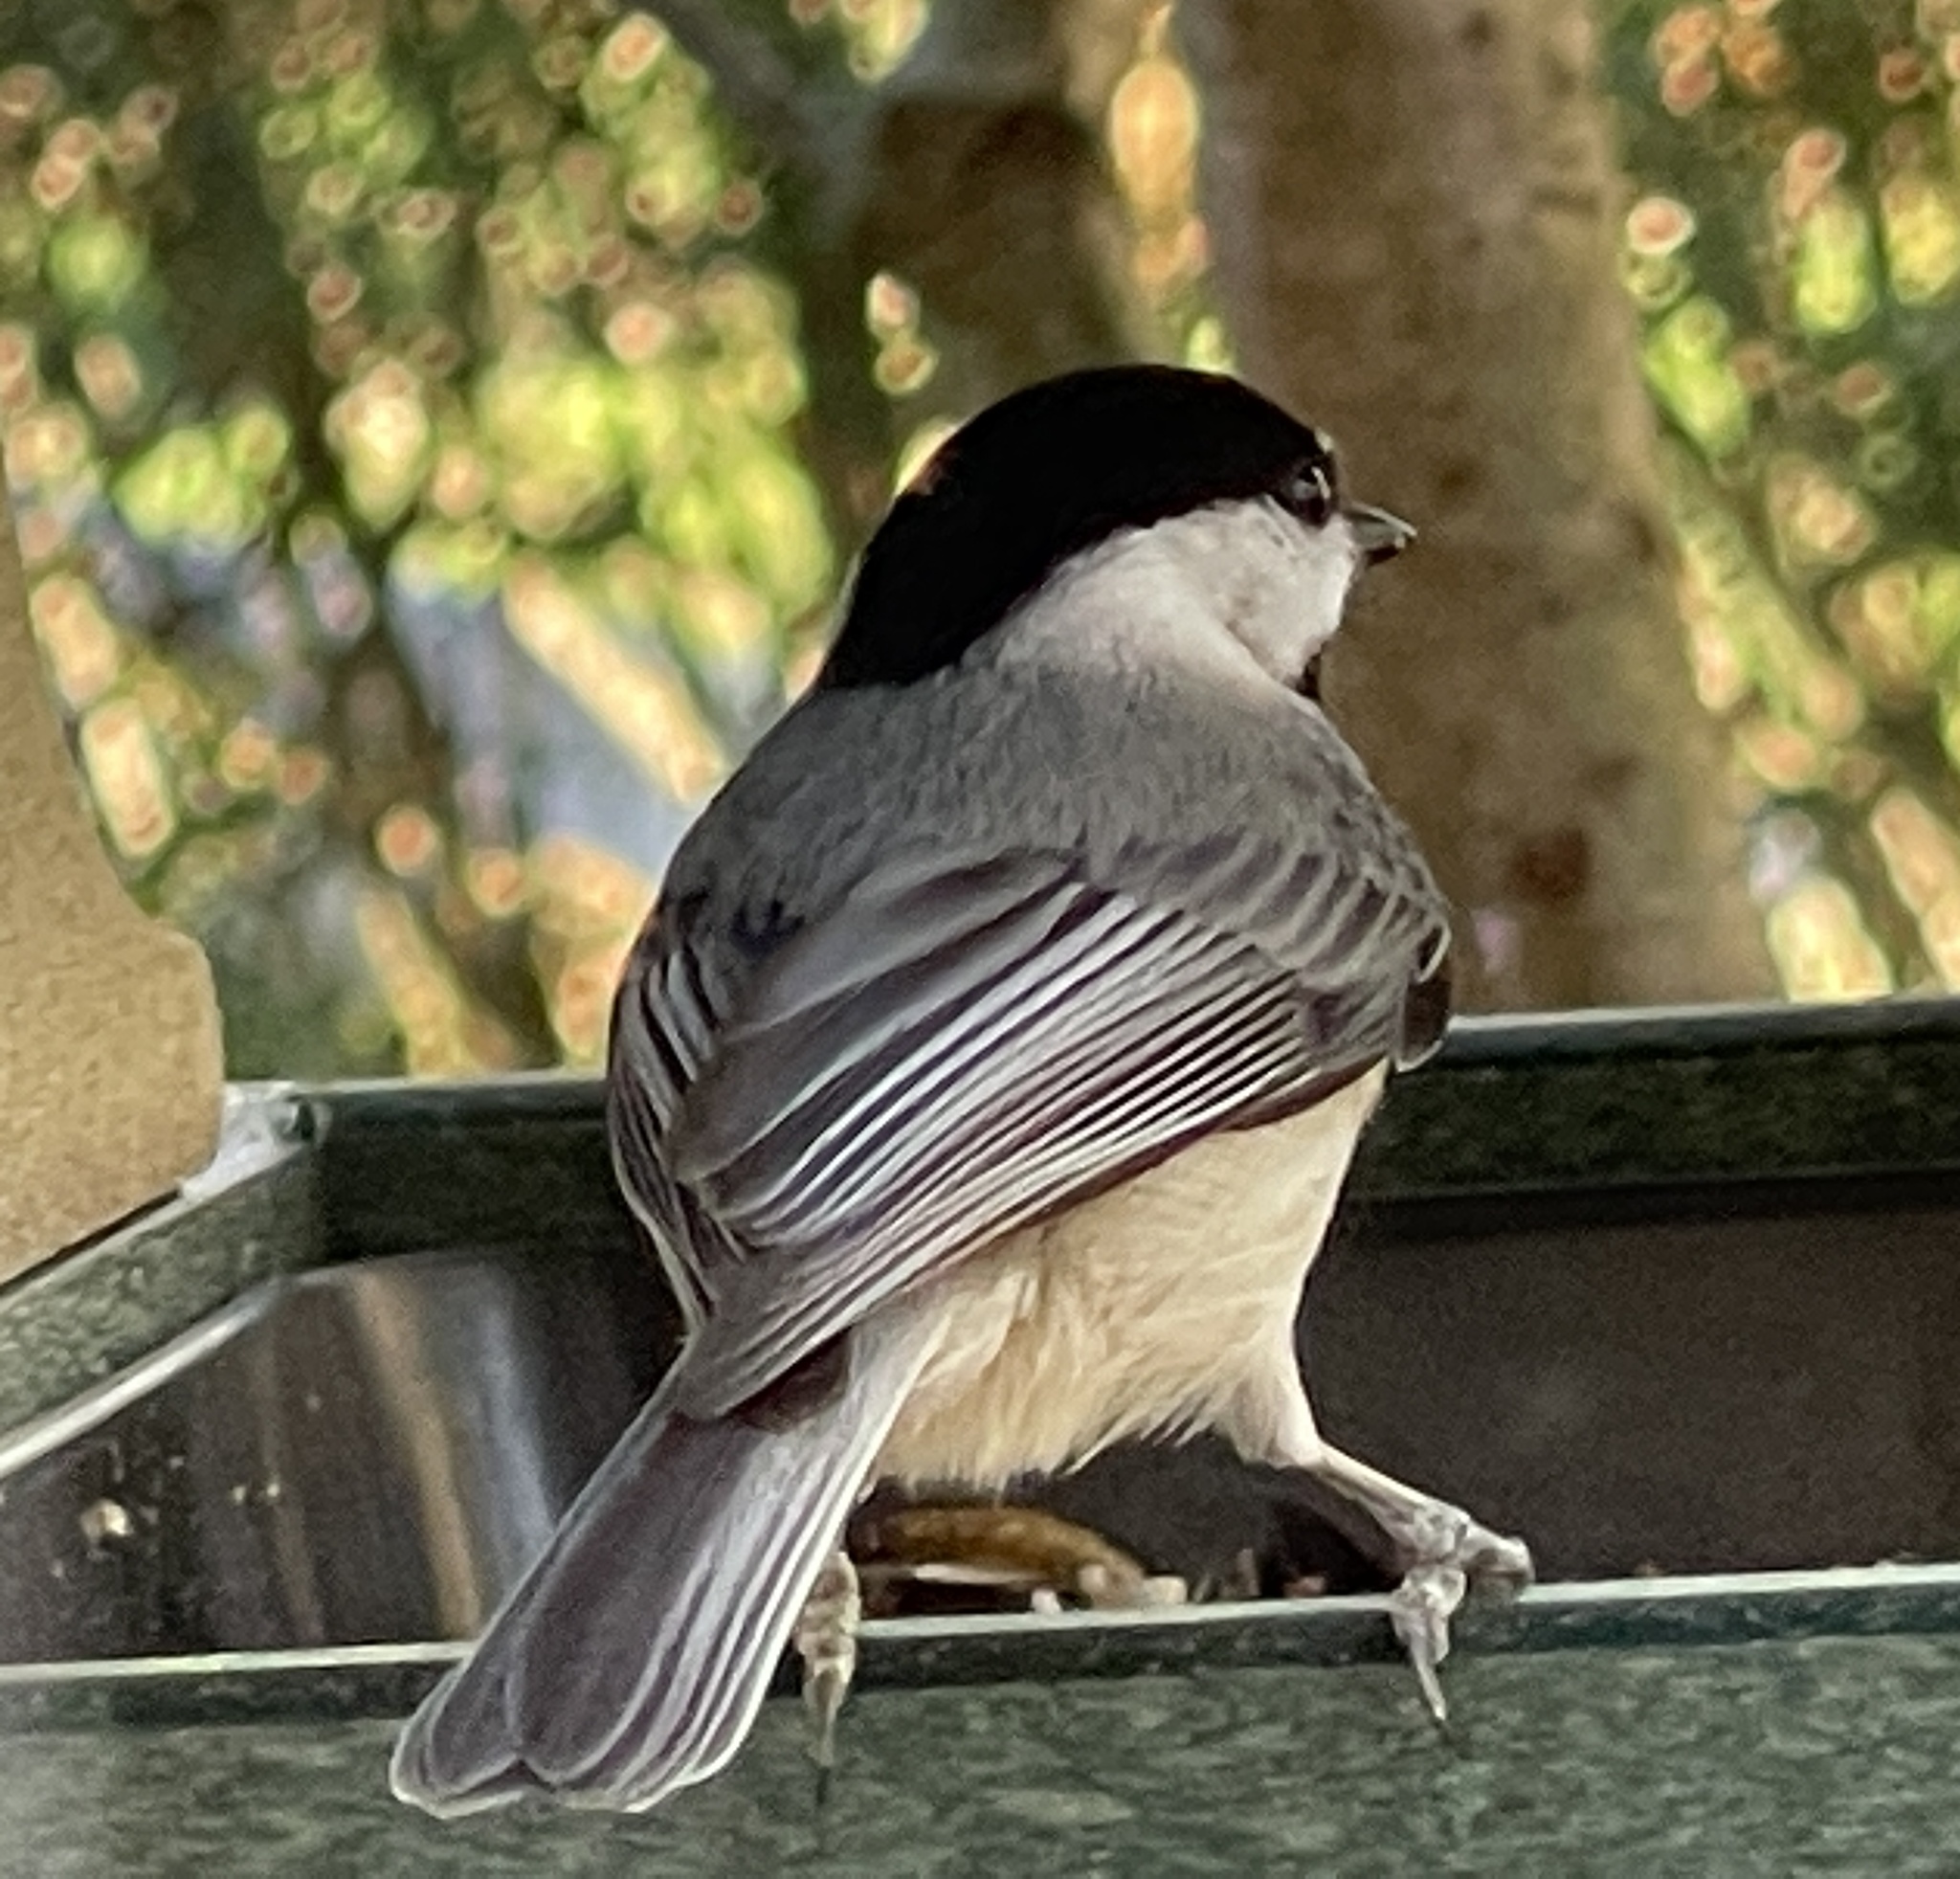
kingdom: Animalia
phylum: Chordata
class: Aves
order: Passeriformes
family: Paridae
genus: Poecile
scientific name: Poecile carolinensis
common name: Carolina chickadee
